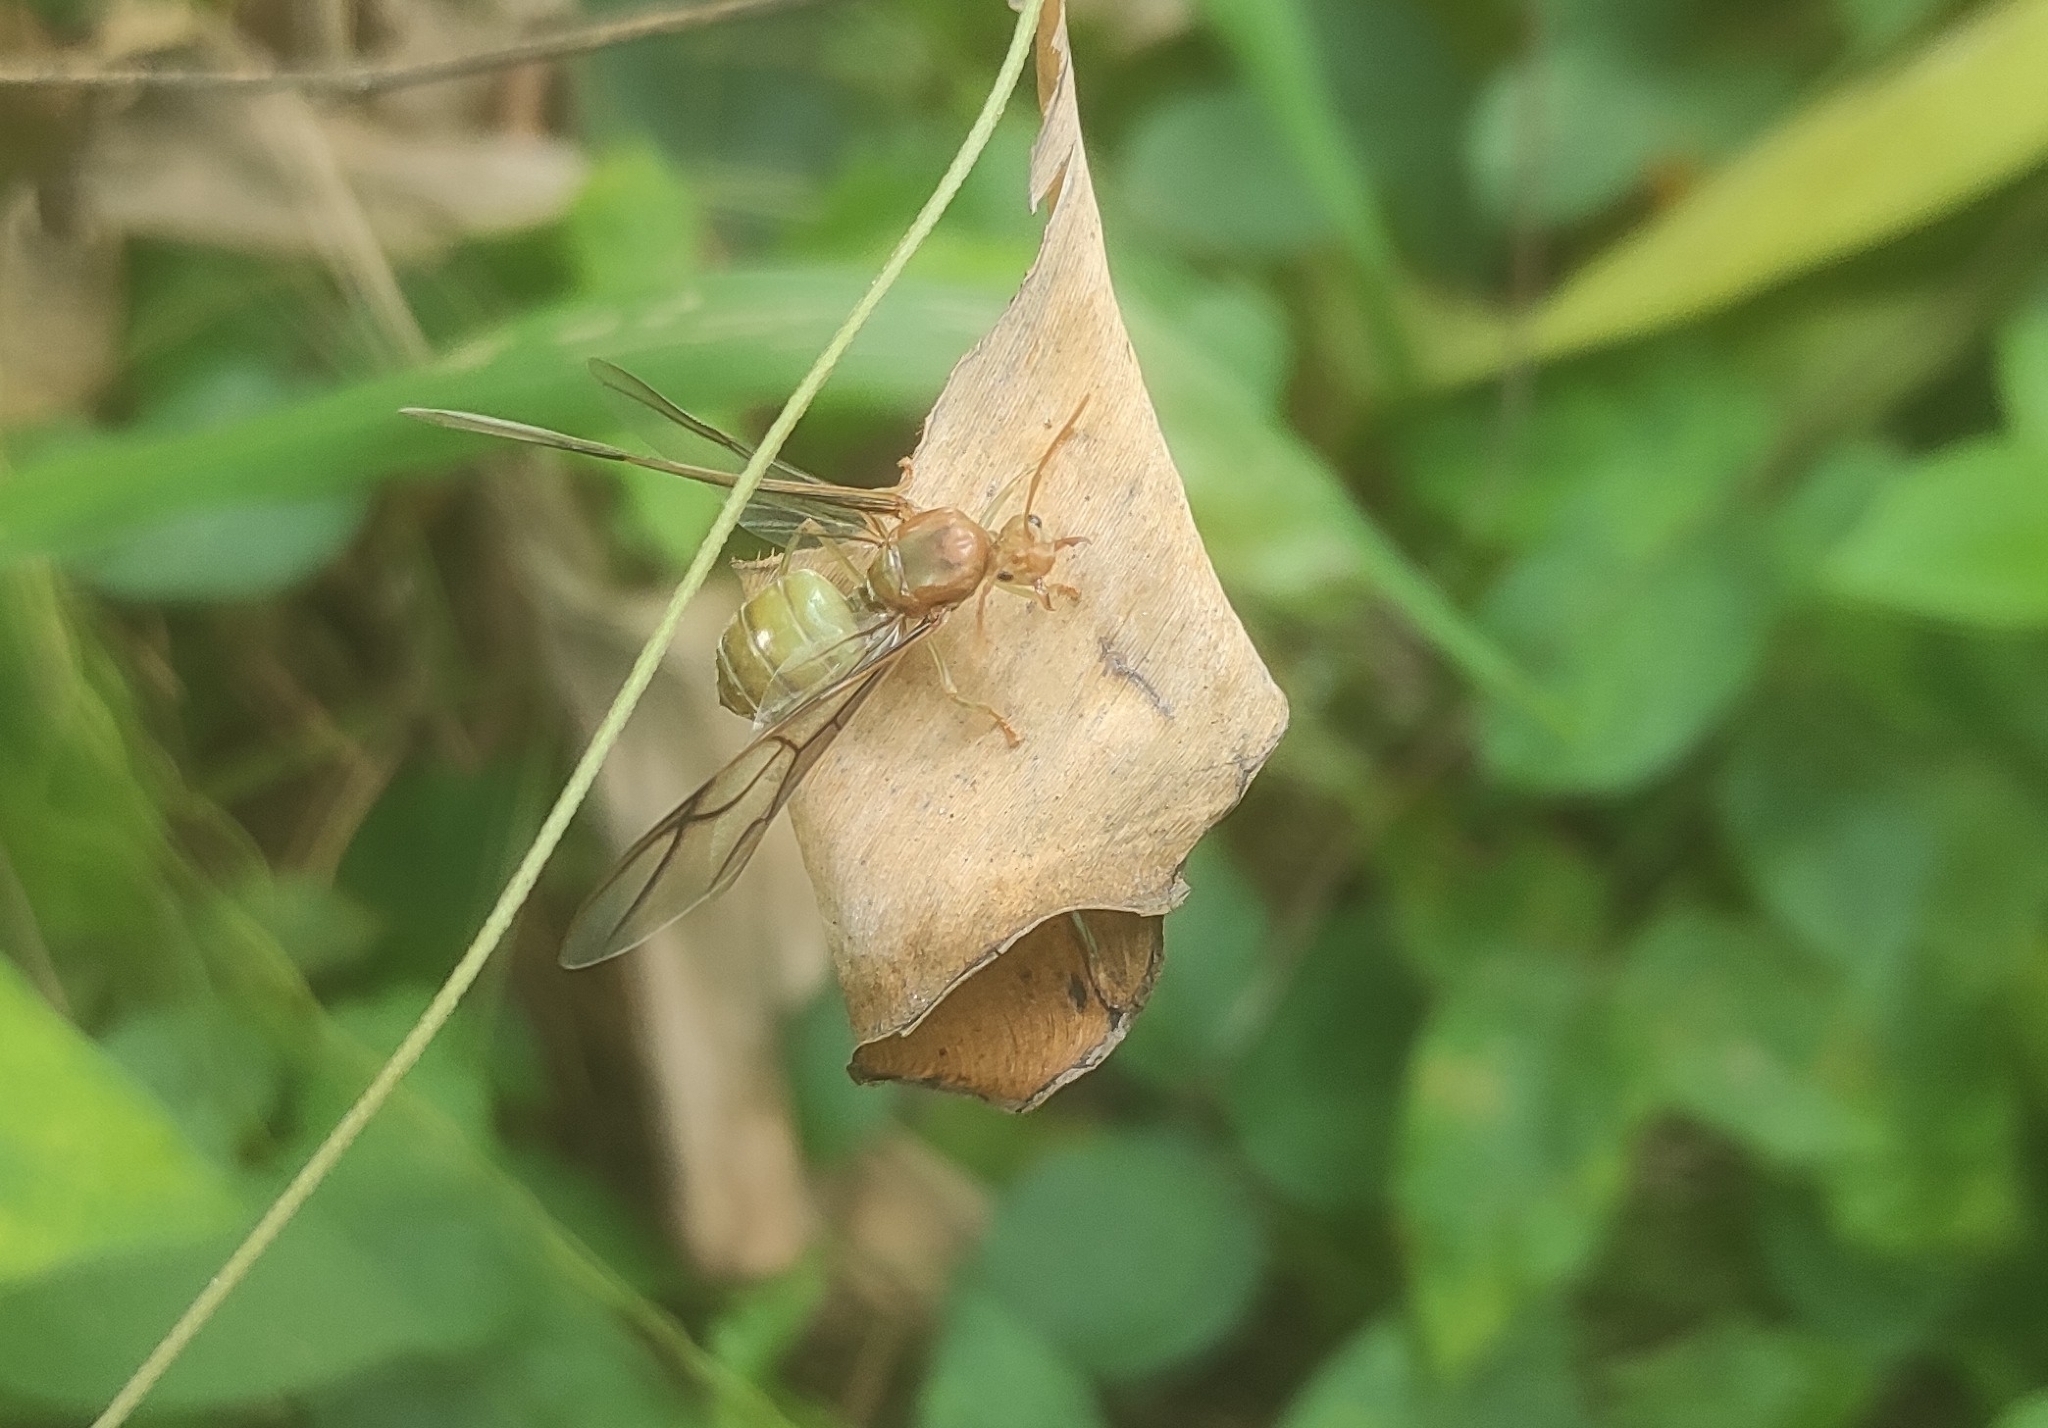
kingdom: Animalia
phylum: Arthropoda
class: Insecta
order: Hymenoptera
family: Formicidae
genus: Oecophylla
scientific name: Oecophylla smaragdina
